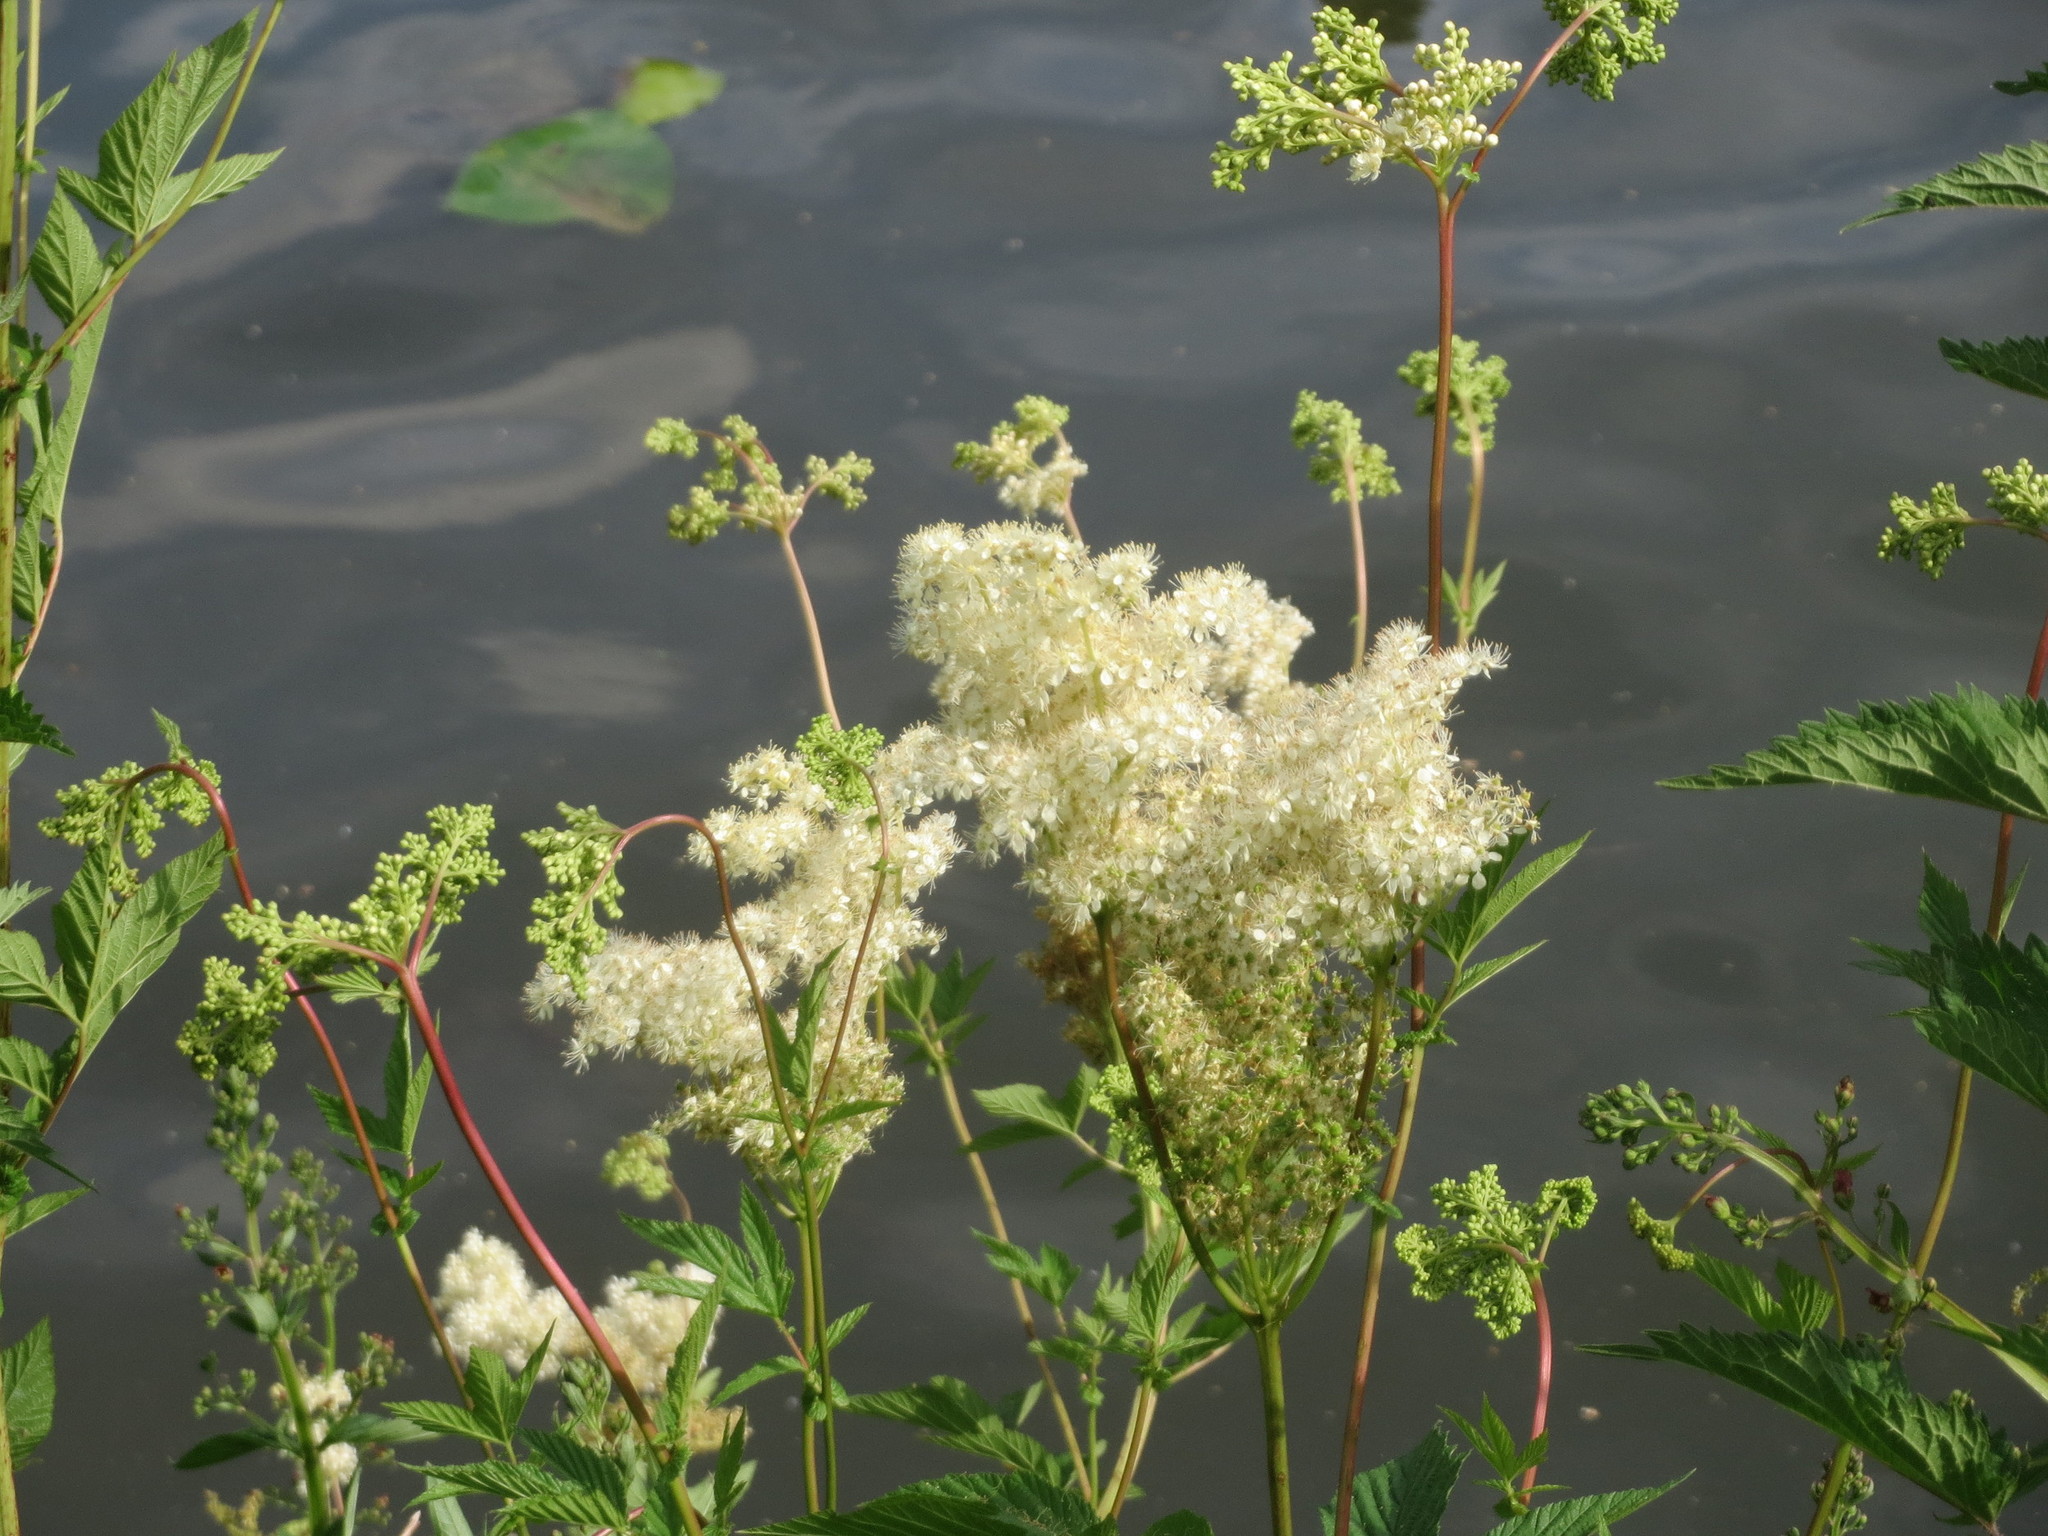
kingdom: Plantae
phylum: Tracheophyta
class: Magnoliopsida
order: Rosales
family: Rosaceae
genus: Filipendula
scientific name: Filipendula ulmaria
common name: Meadowsweet
